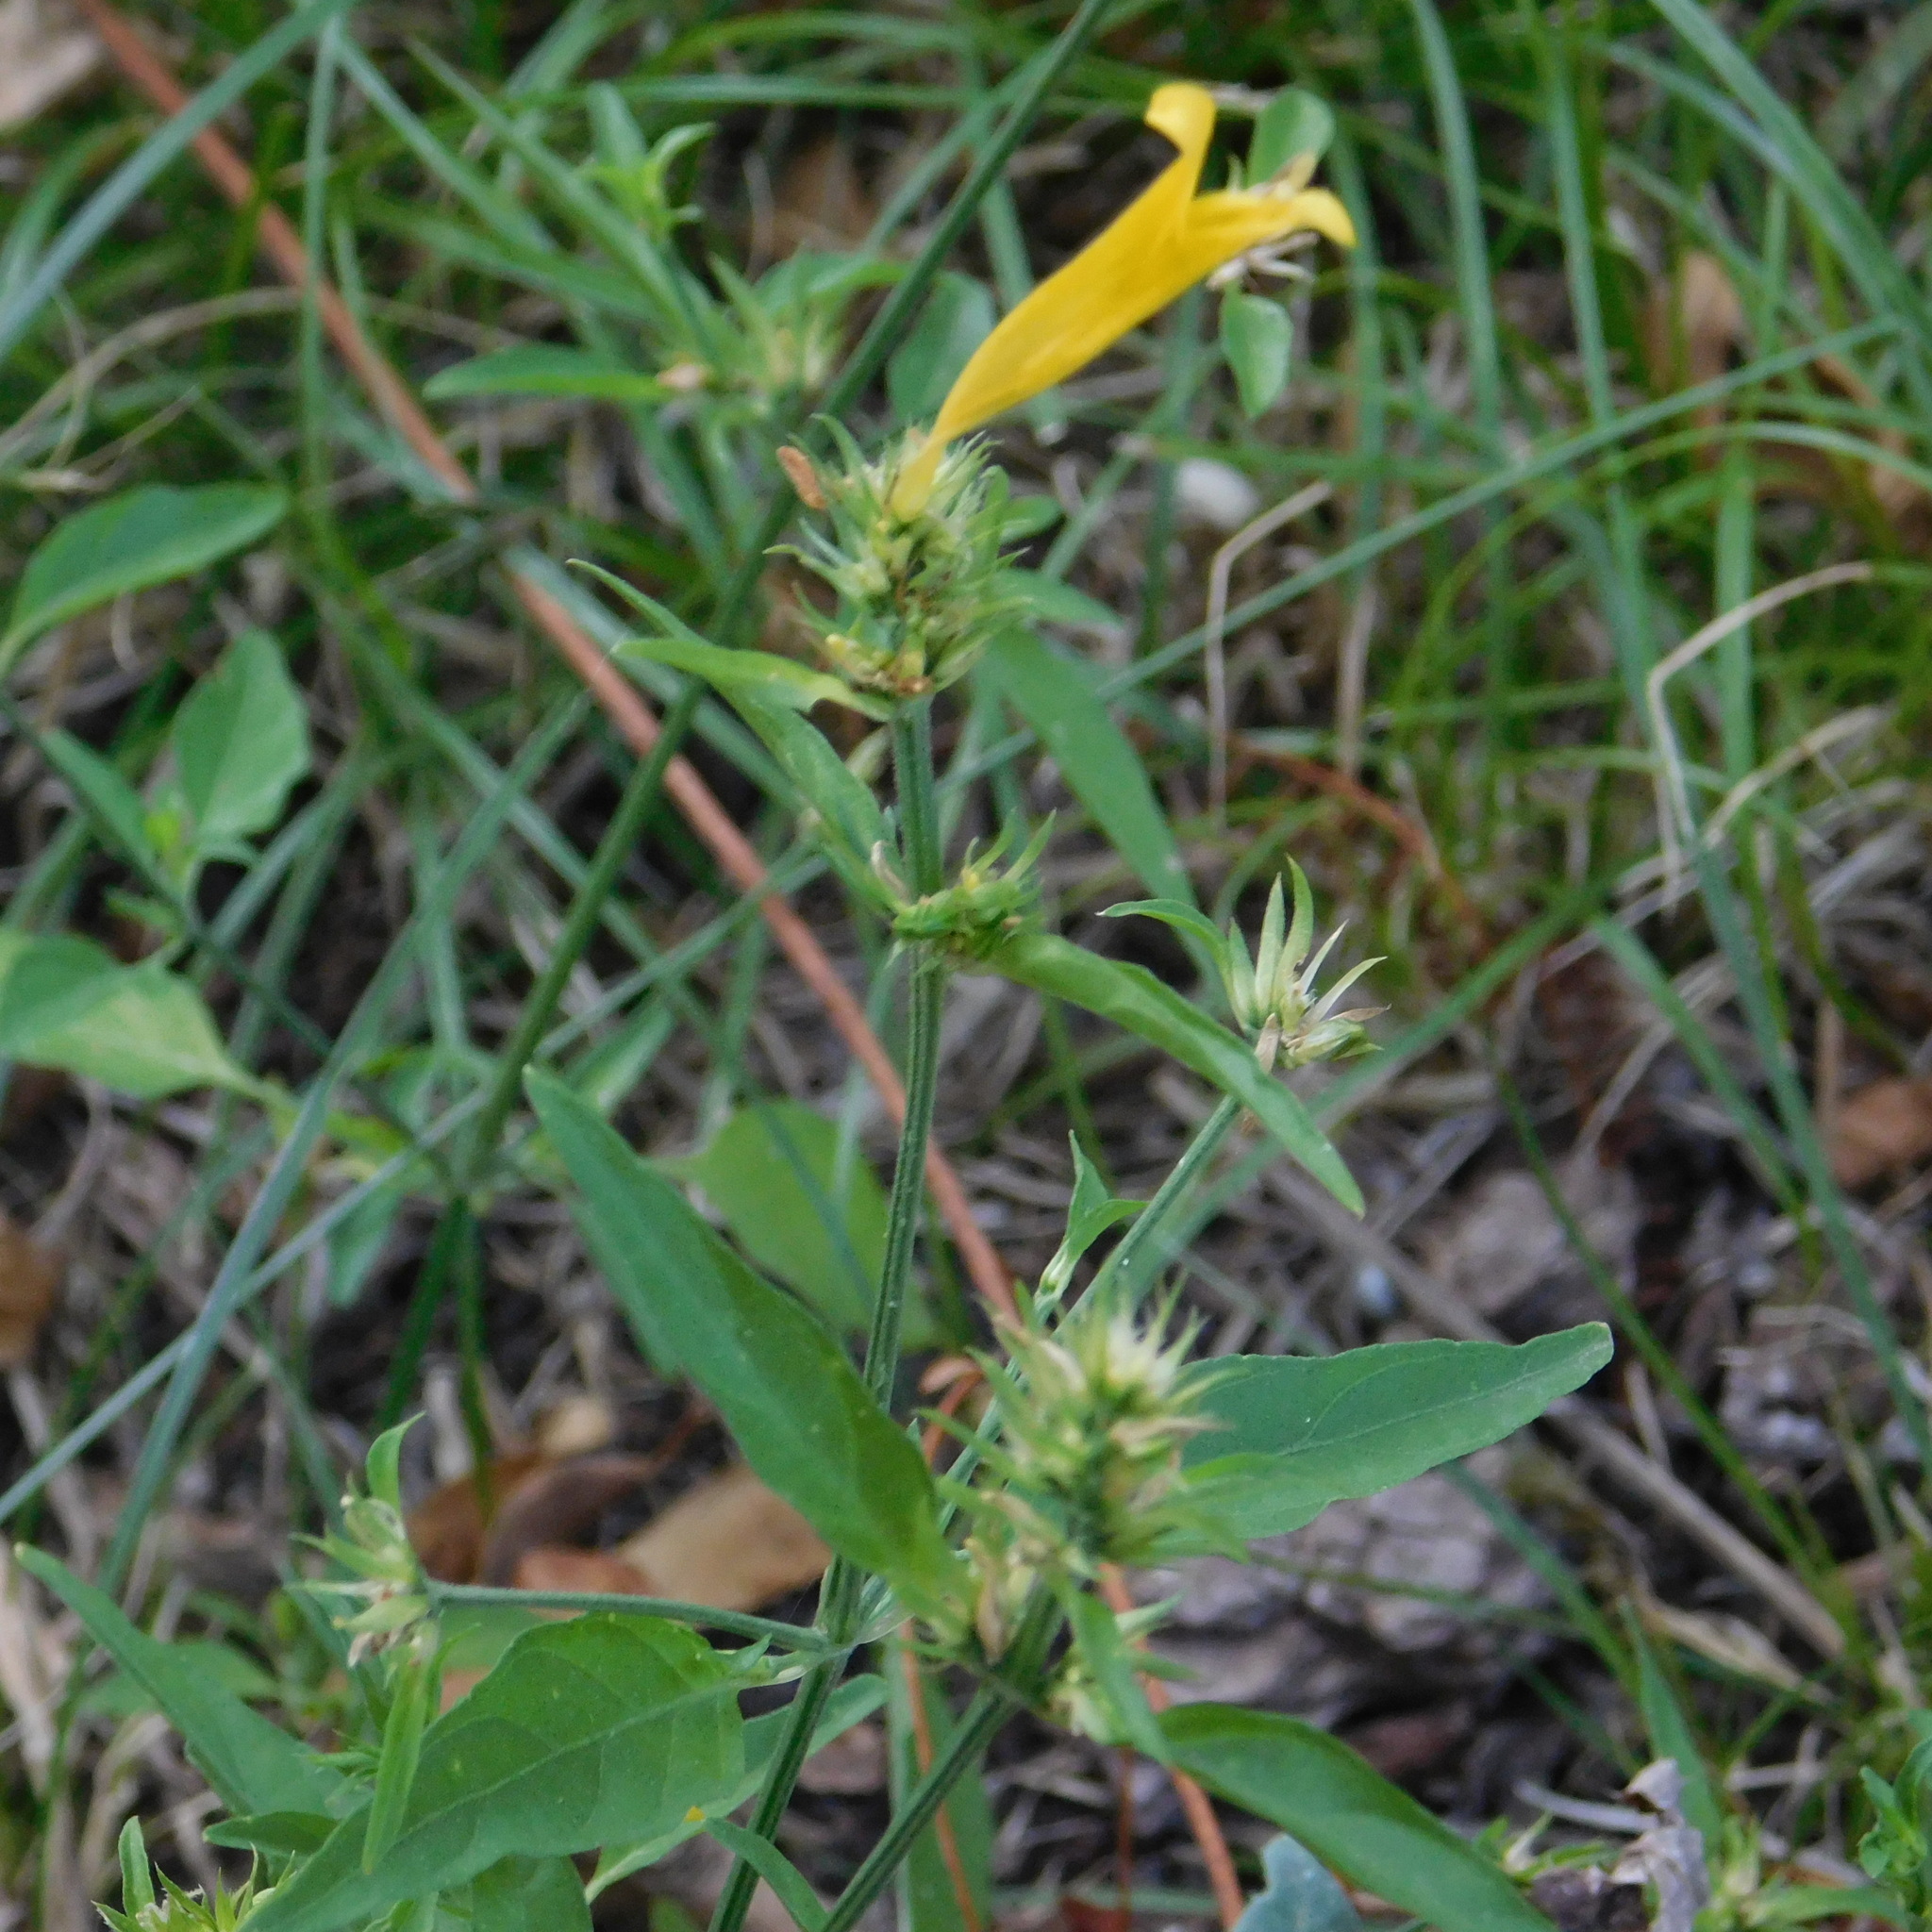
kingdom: Plantae
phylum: Tracheophyta
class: Magnoliopsida
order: Lamiales
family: Acanthaceae
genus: Dicliptera
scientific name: Dicliptera squarrosa
